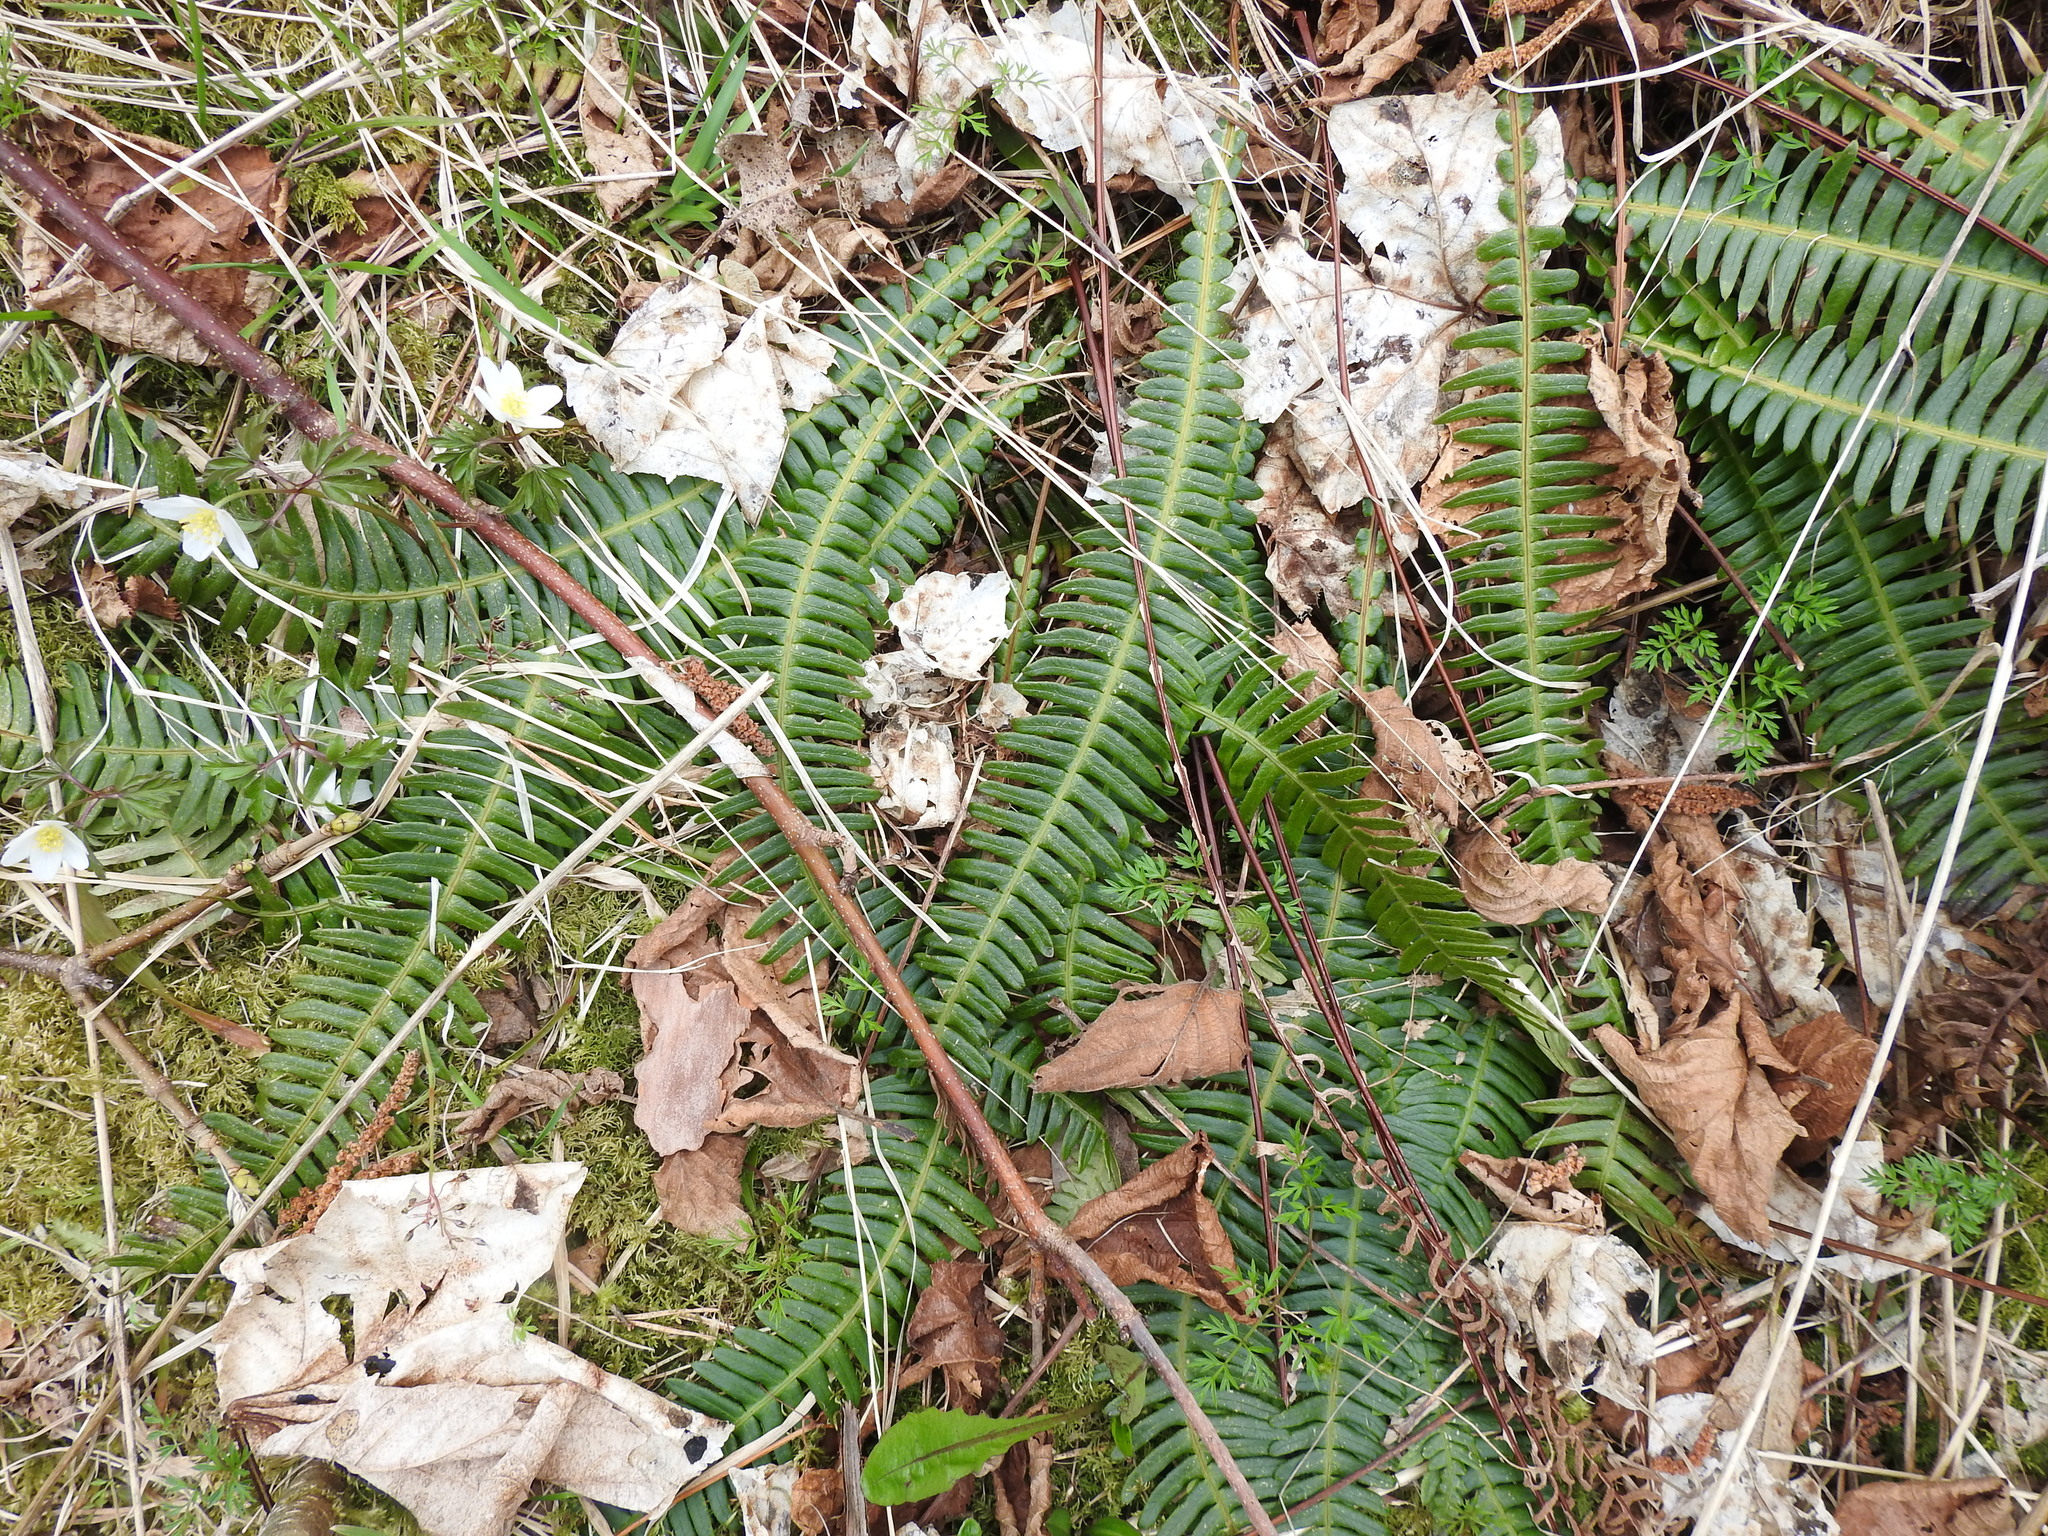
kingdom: Plantae
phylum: Tracheophyta
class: Polypodiopsida
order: Polypodiales
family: Blechnaceae
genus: Struthiopteris
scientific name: Struthiopteris spicant
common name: Deer fern
